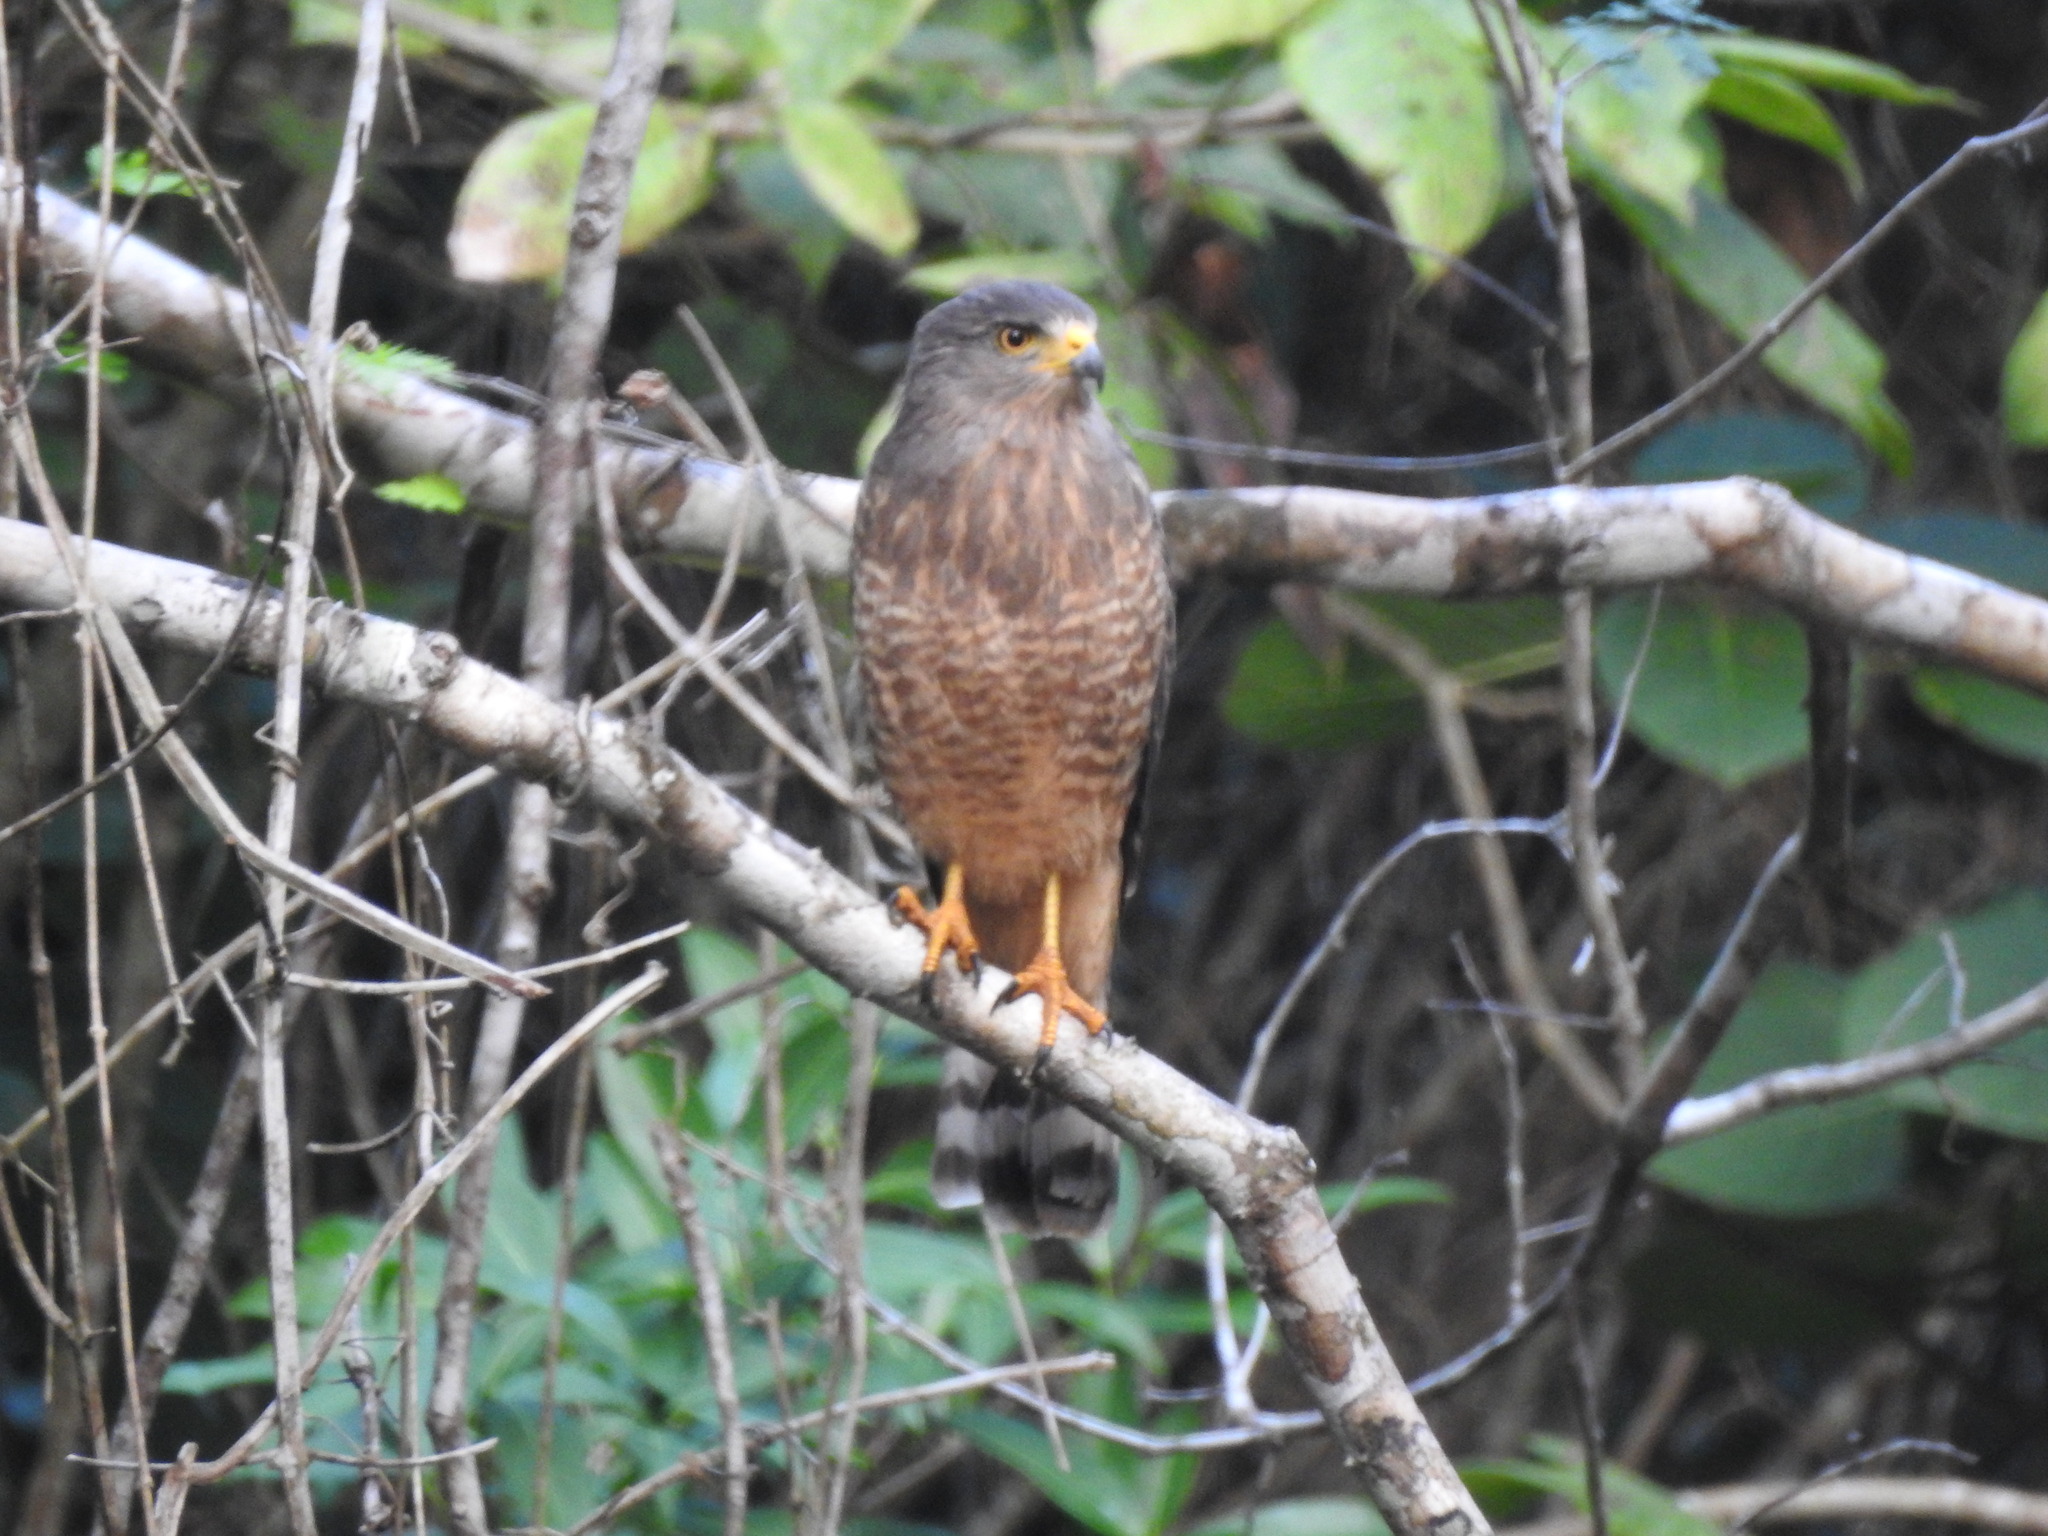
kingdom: Animalia
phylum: Chordata
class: Aves
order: Accipitriformes
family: Accipitridae
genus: Rupornis
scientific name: Rupornis magnirostris
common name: Roadside hawk
